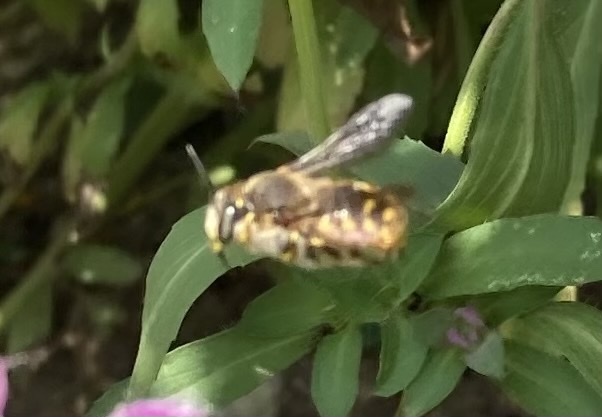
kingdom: Animalia
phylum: Arthropoda
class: Insecta
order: Hymenoptera
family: Megachilidae
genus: Anthidium
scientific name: Anthidium manicatum
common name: Wool carder bee
